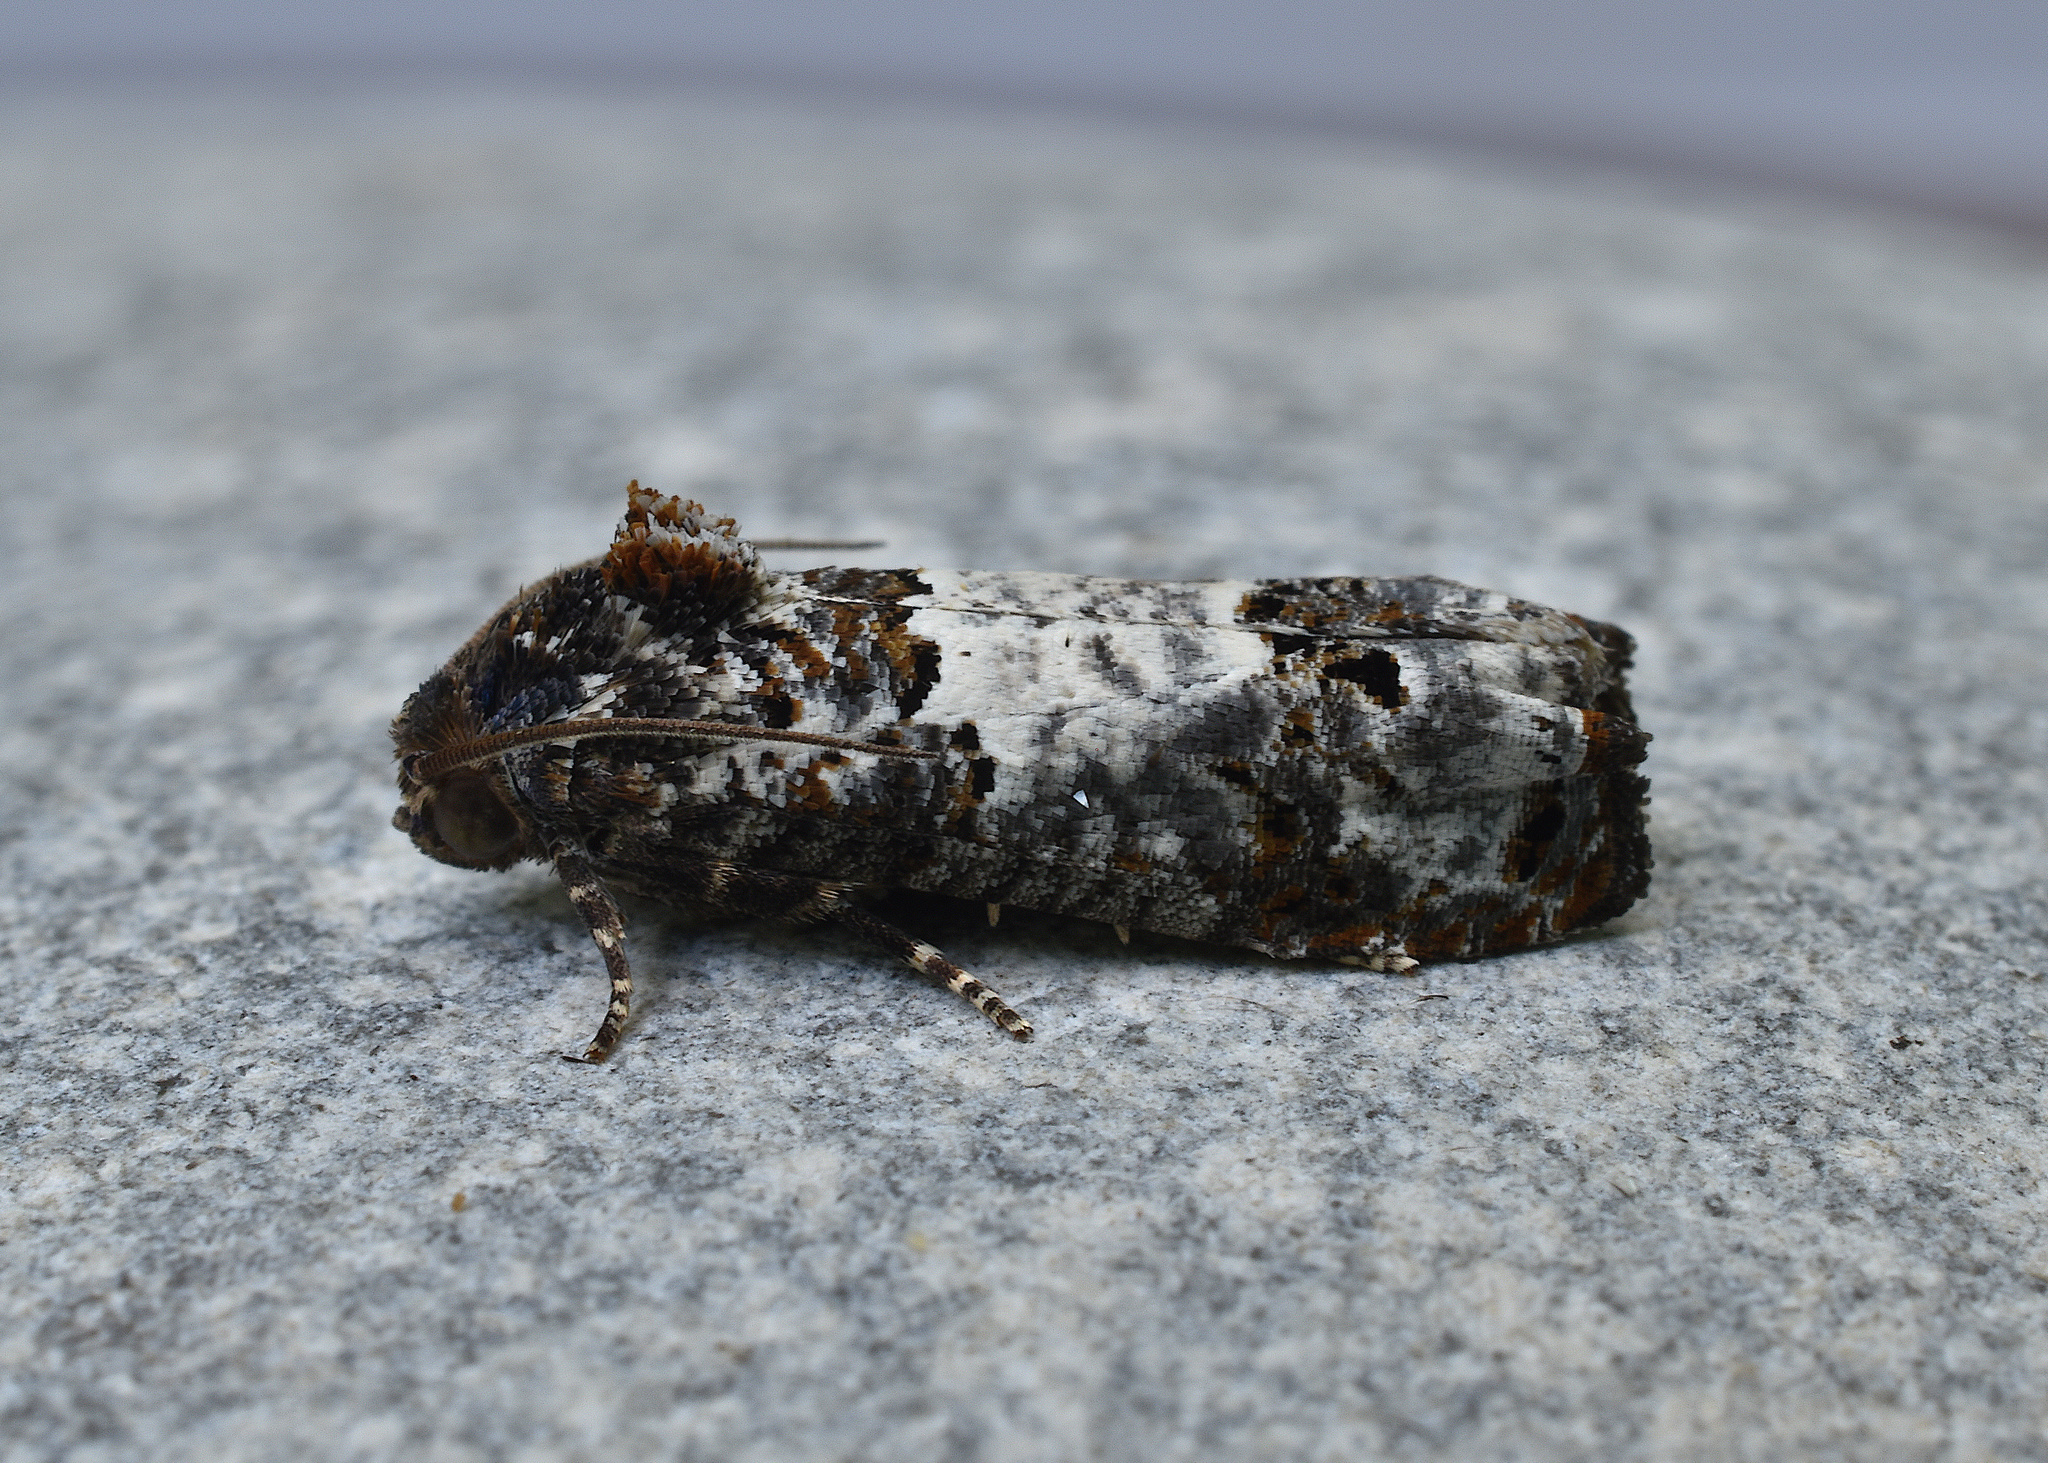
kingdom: Animalia
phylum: Arthropoda
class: Insecta
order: Lepidoptera
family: Tortricidae
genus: Epiblema
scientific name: Epiblema carolinana
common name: Gray-blotched epiblema moth
